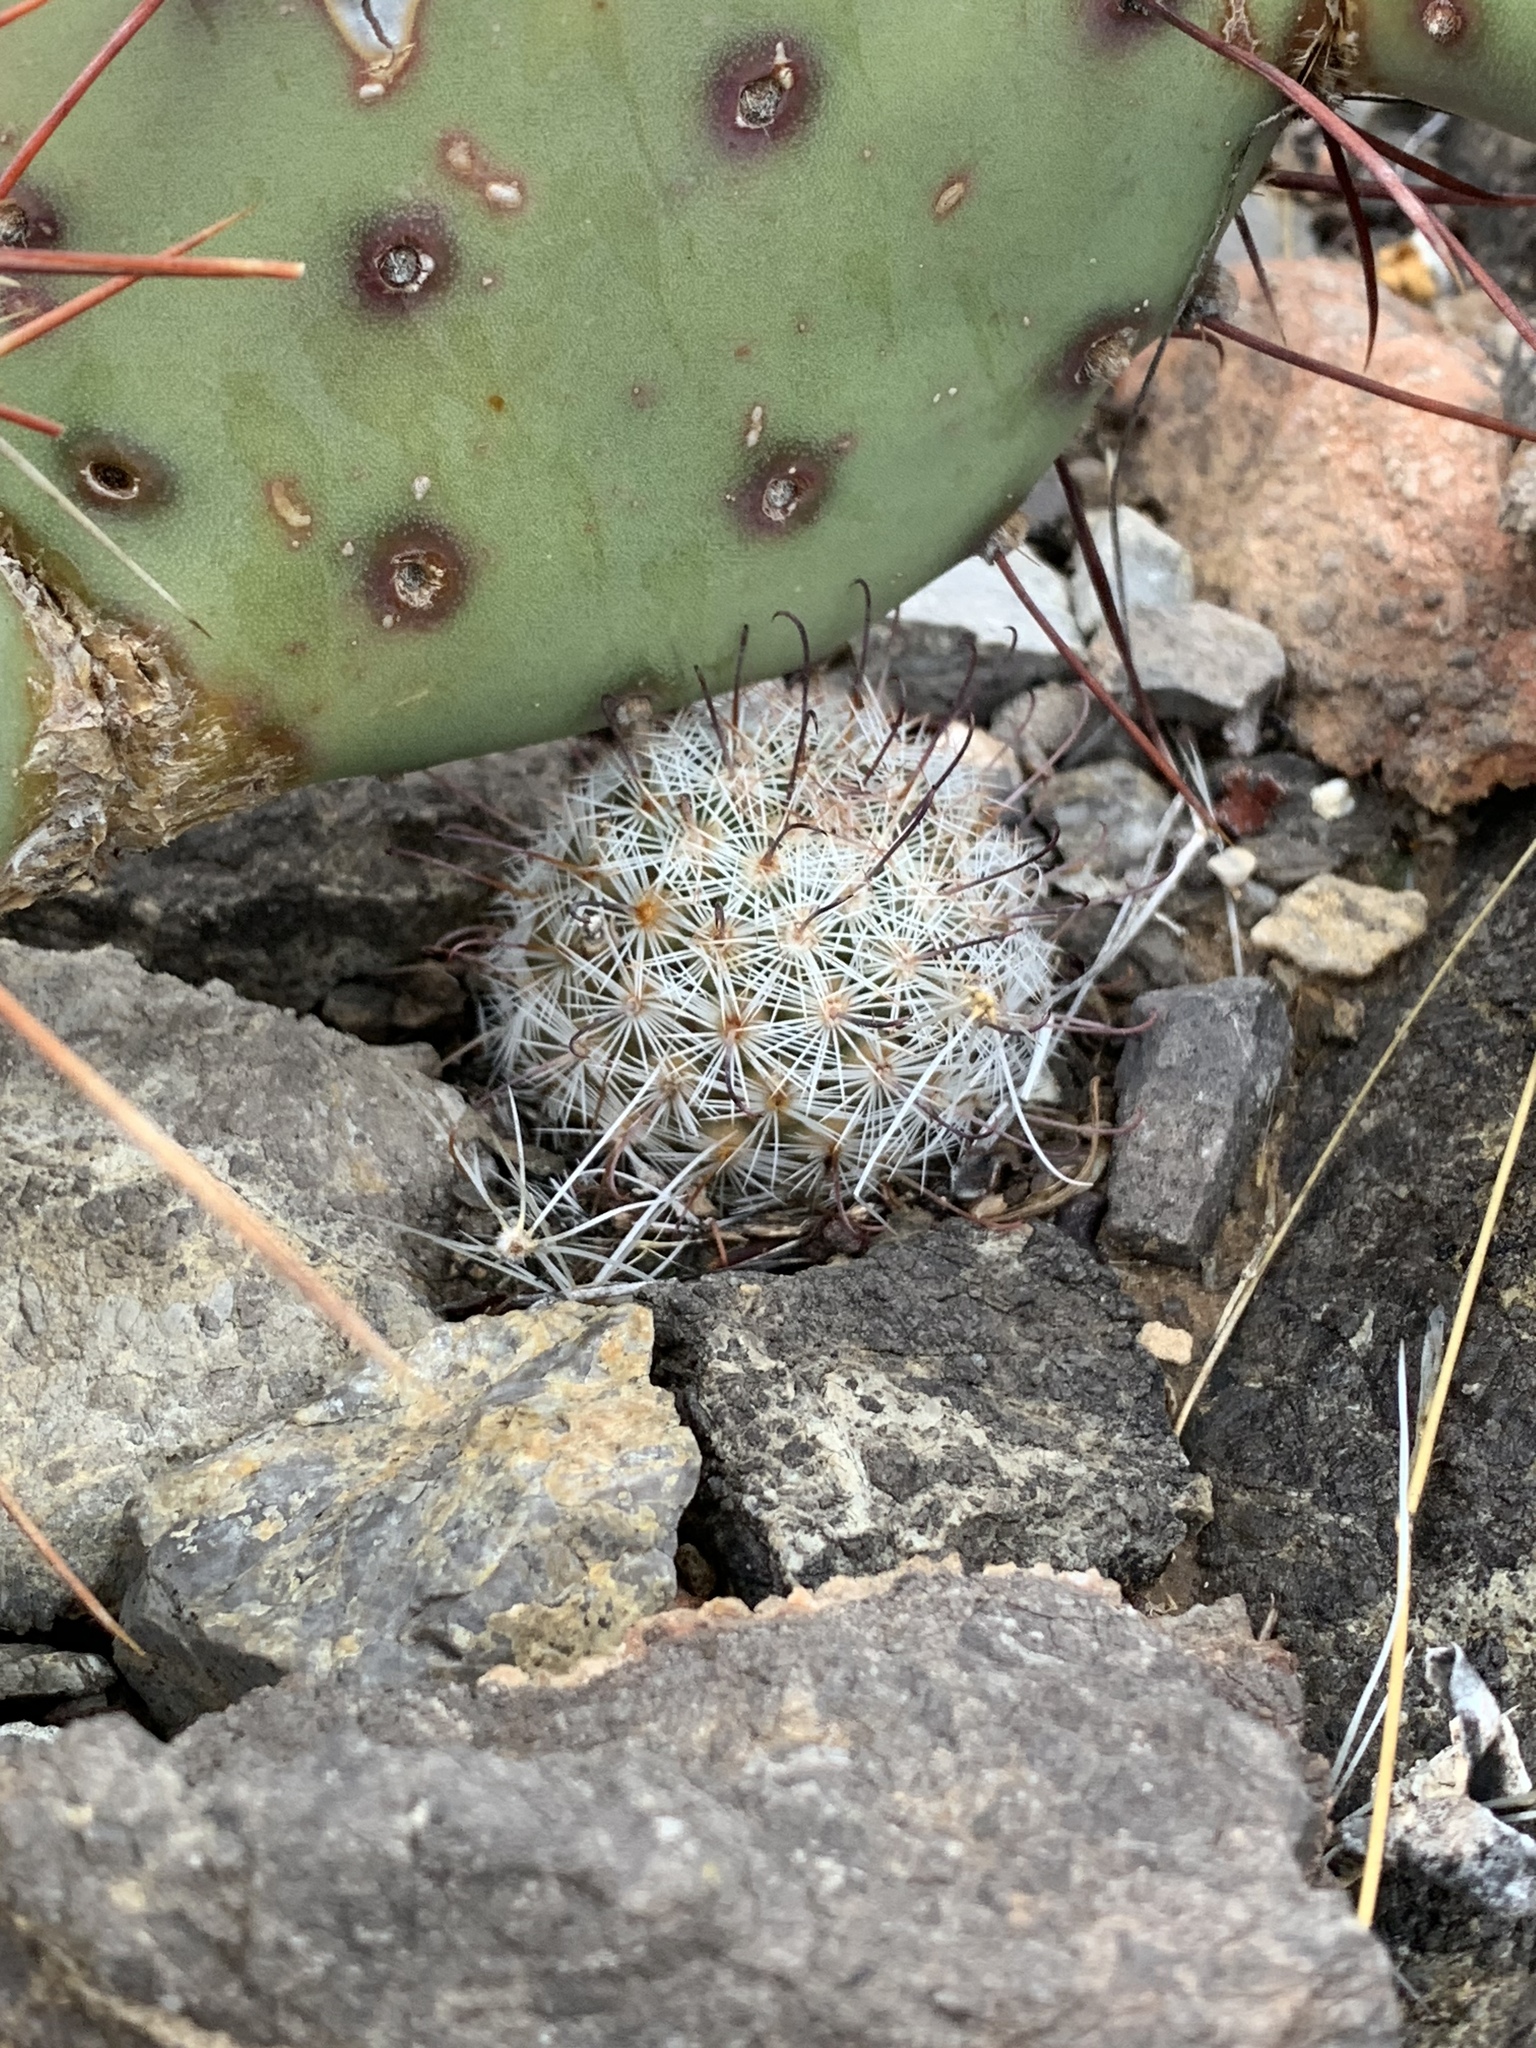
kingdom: Plantae
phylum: Tracheophyta
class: Magnoliopsida
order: Caryophyllales
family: Cactaceae
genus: Cochemiea
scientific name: Cochemiea grahamii
